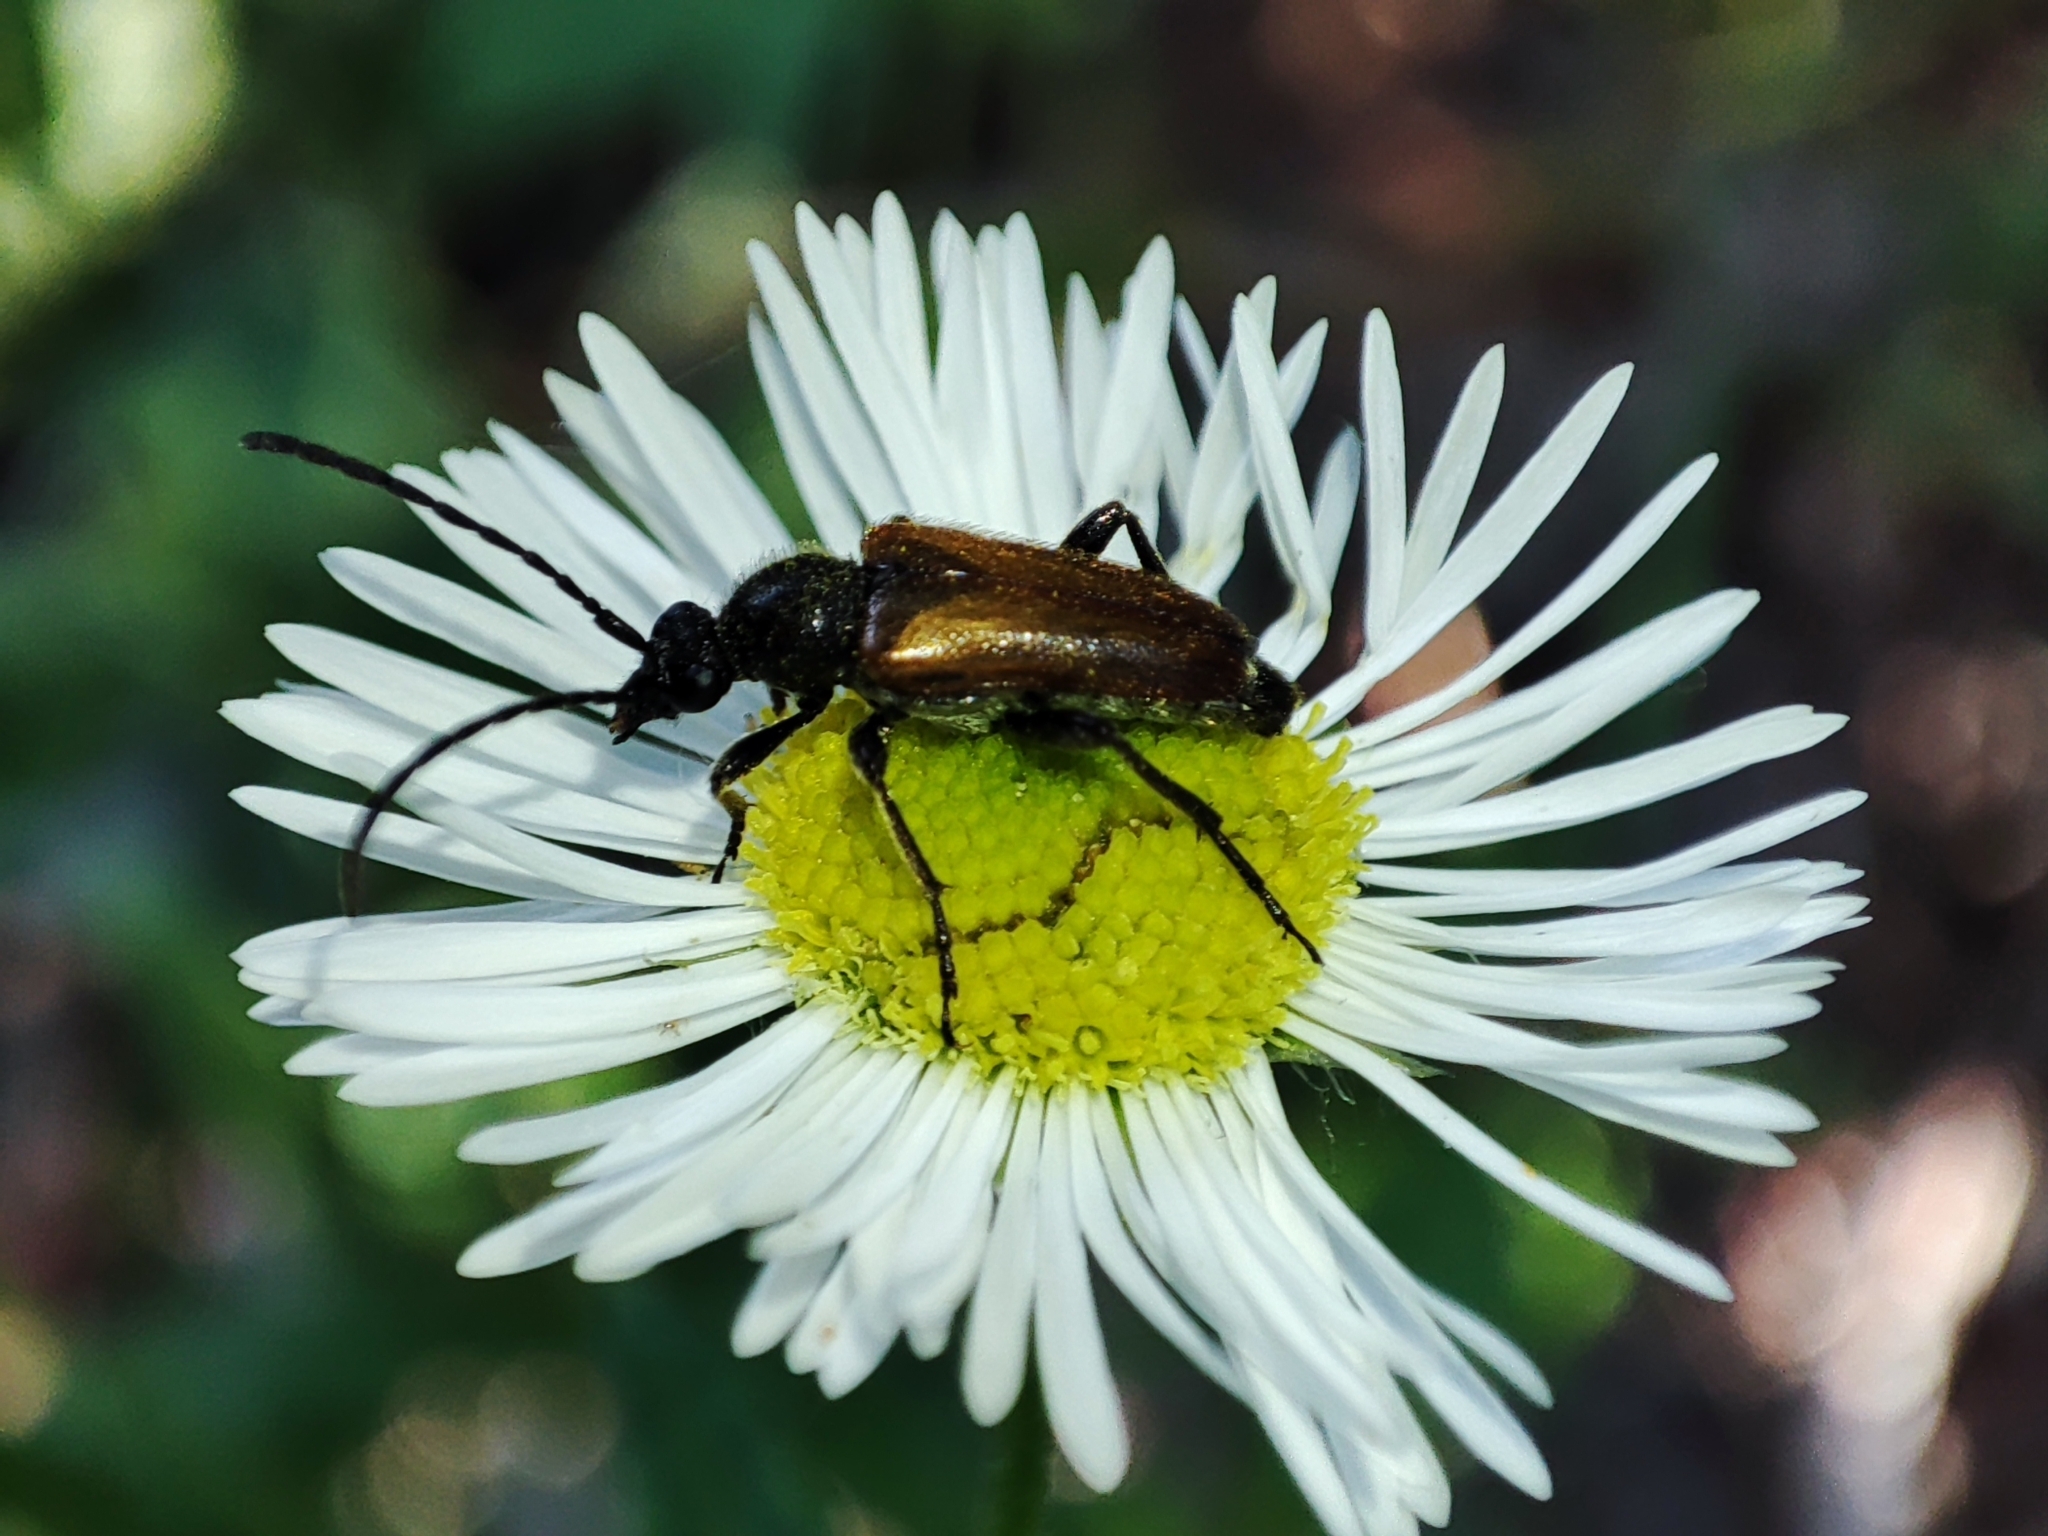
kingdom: Animalia
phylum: Arthropoda
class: Insecta
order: Coleoptera
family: Cerambycidae
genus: Pseudovadonia
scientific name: Pseudovadonia livida
